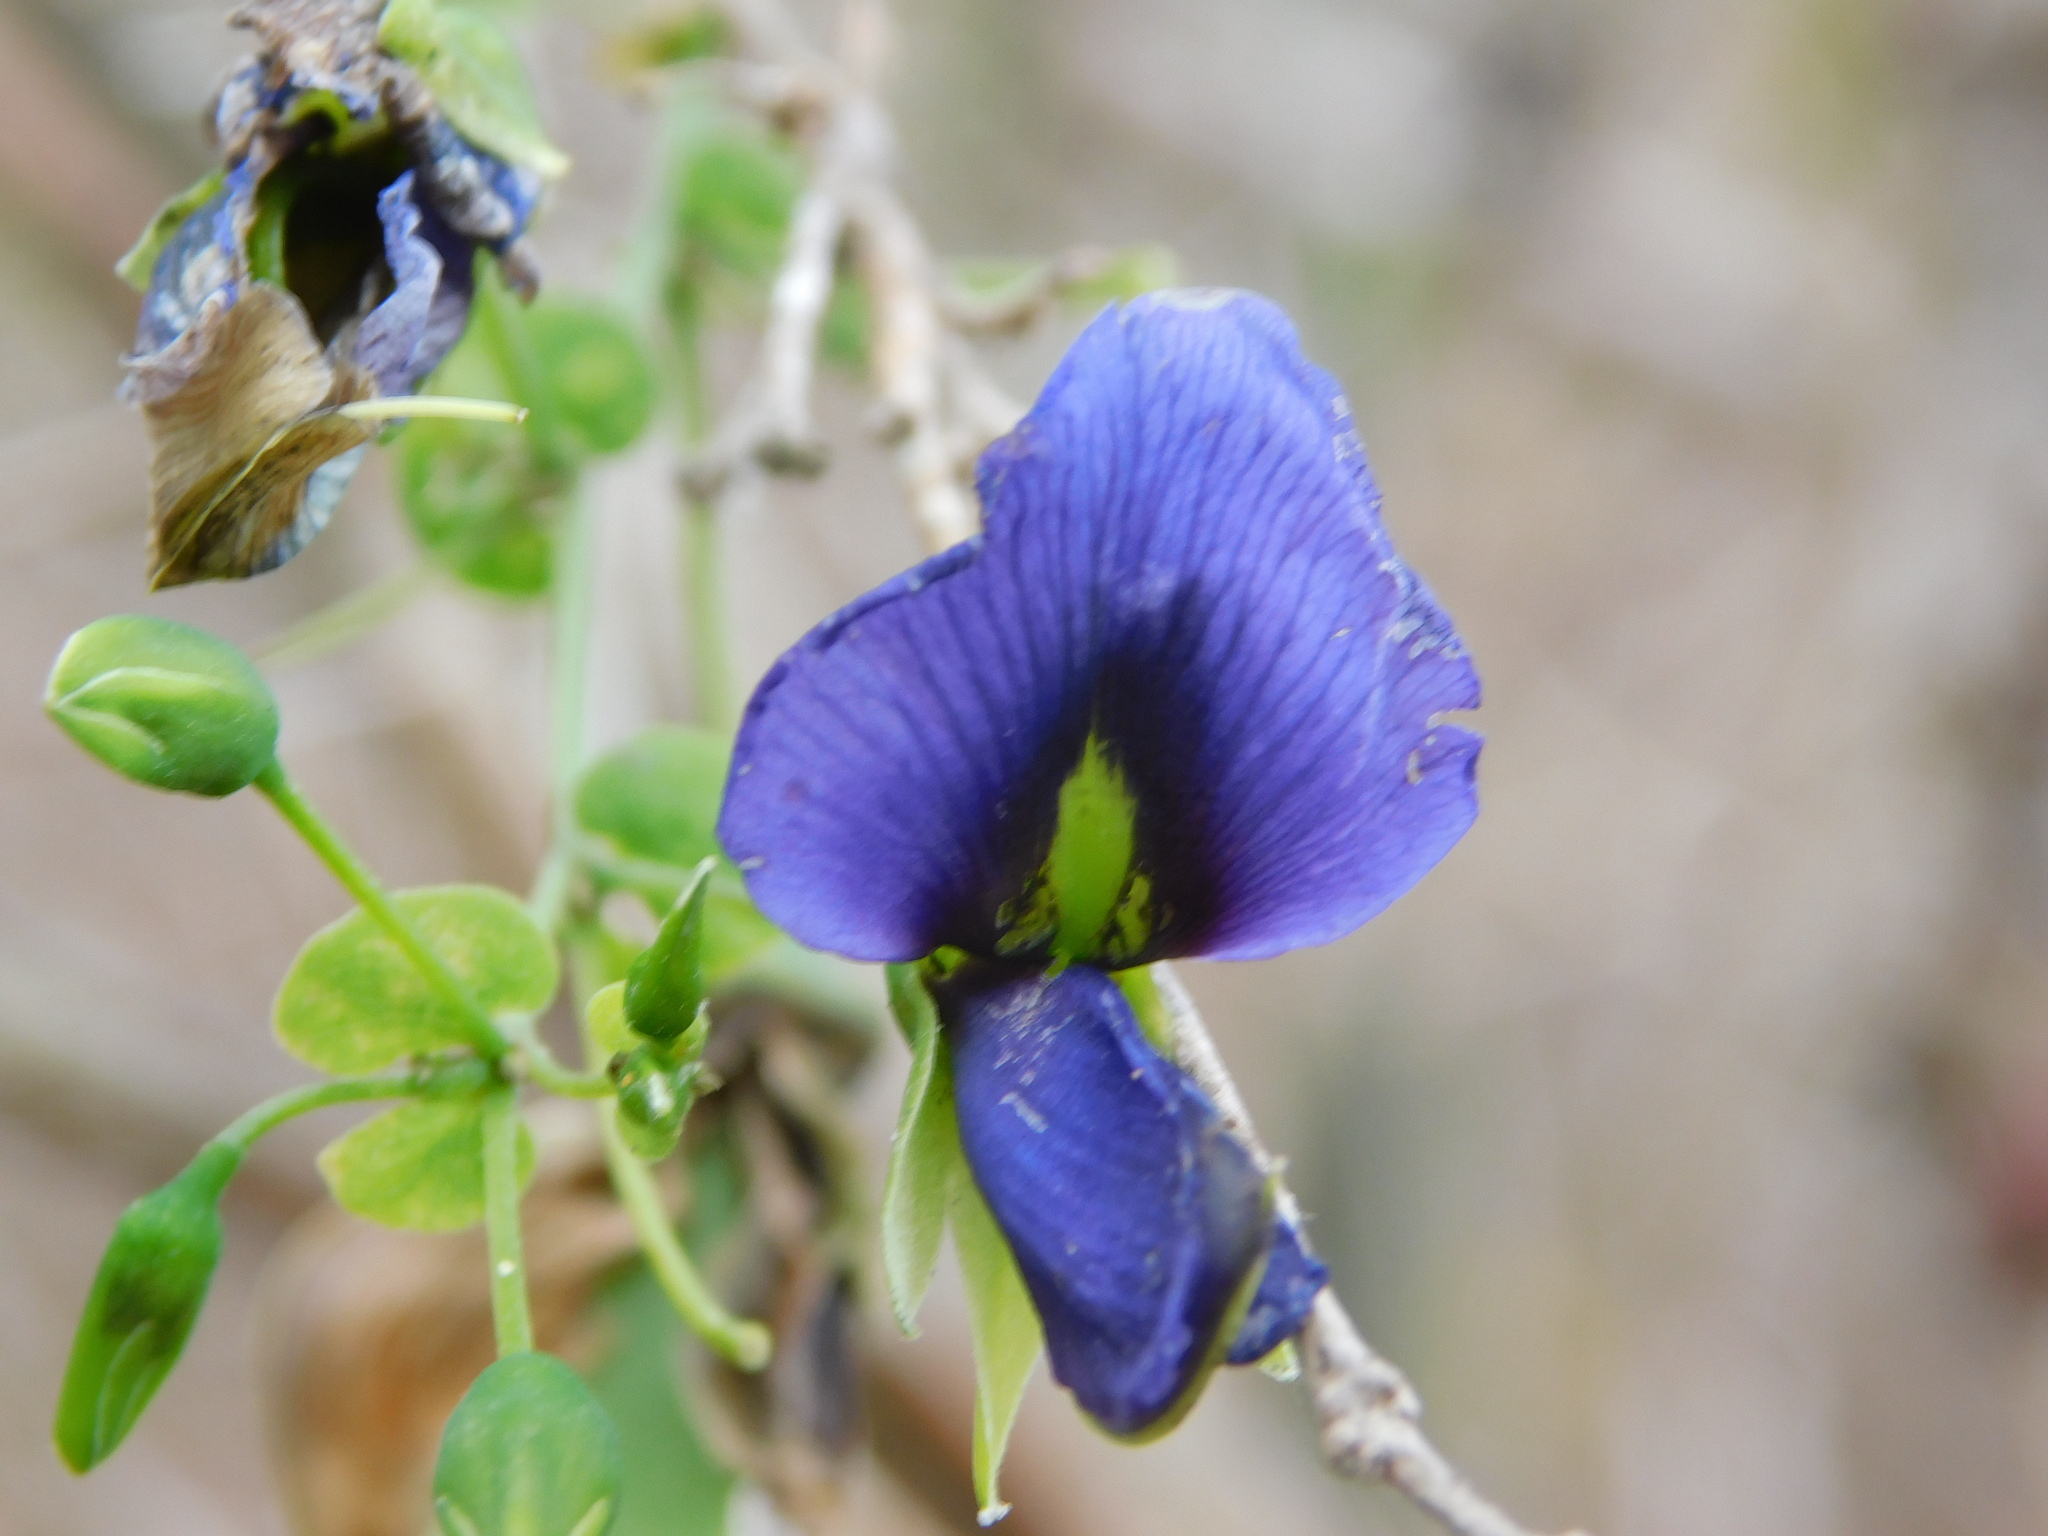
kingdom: Plantae
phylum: Tracheophyta
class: Magnoliopsida
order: Fabales
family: Fabaceae
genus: Brongniartia
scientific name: Brongniartia mortonii
